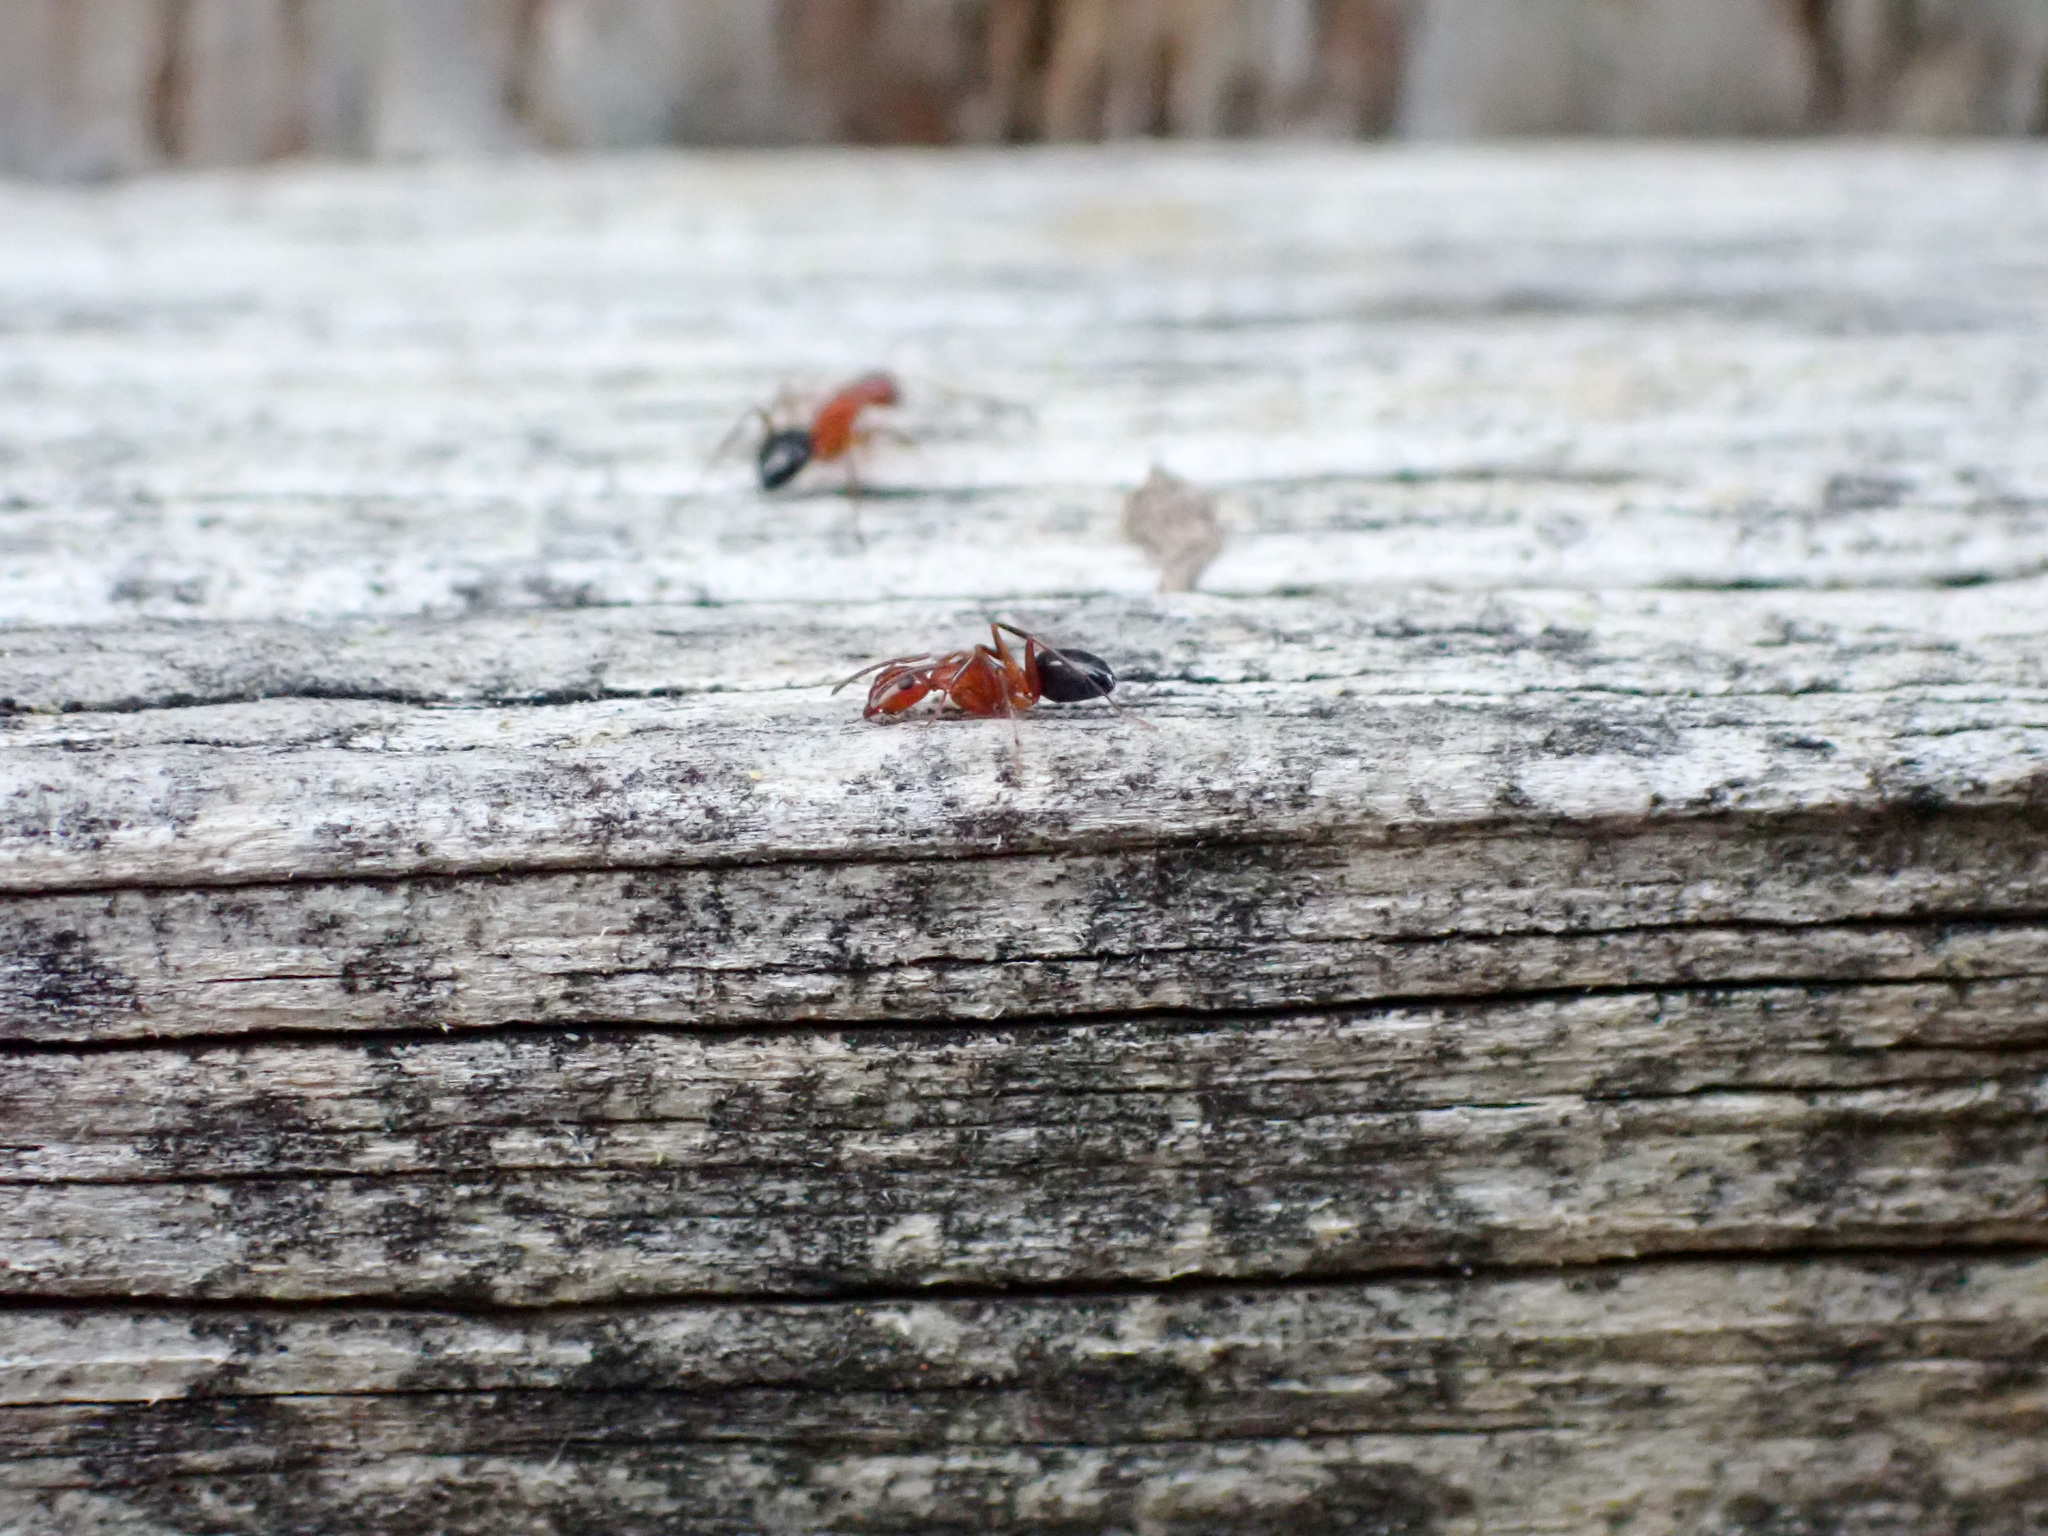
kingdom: Animalia
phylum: Arthropoda
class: Insecta
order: Hymenoptera
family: Formicidae
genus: Camponotus
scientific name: Camponotus discolor
